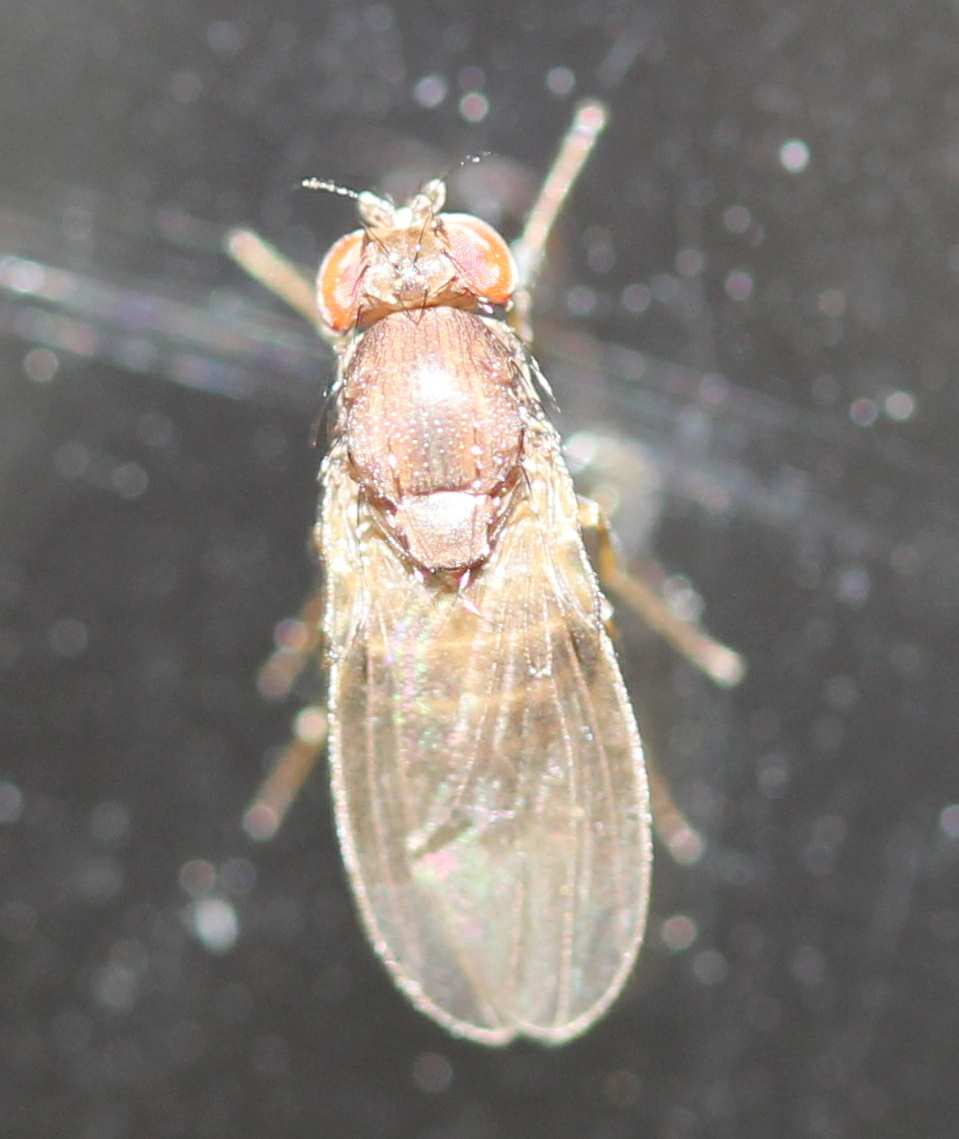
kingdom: Animalia
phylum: Arthropoda
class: Insecta
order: Diptera
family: Drosophilidae
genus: Drosophila
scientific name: Drosophila
